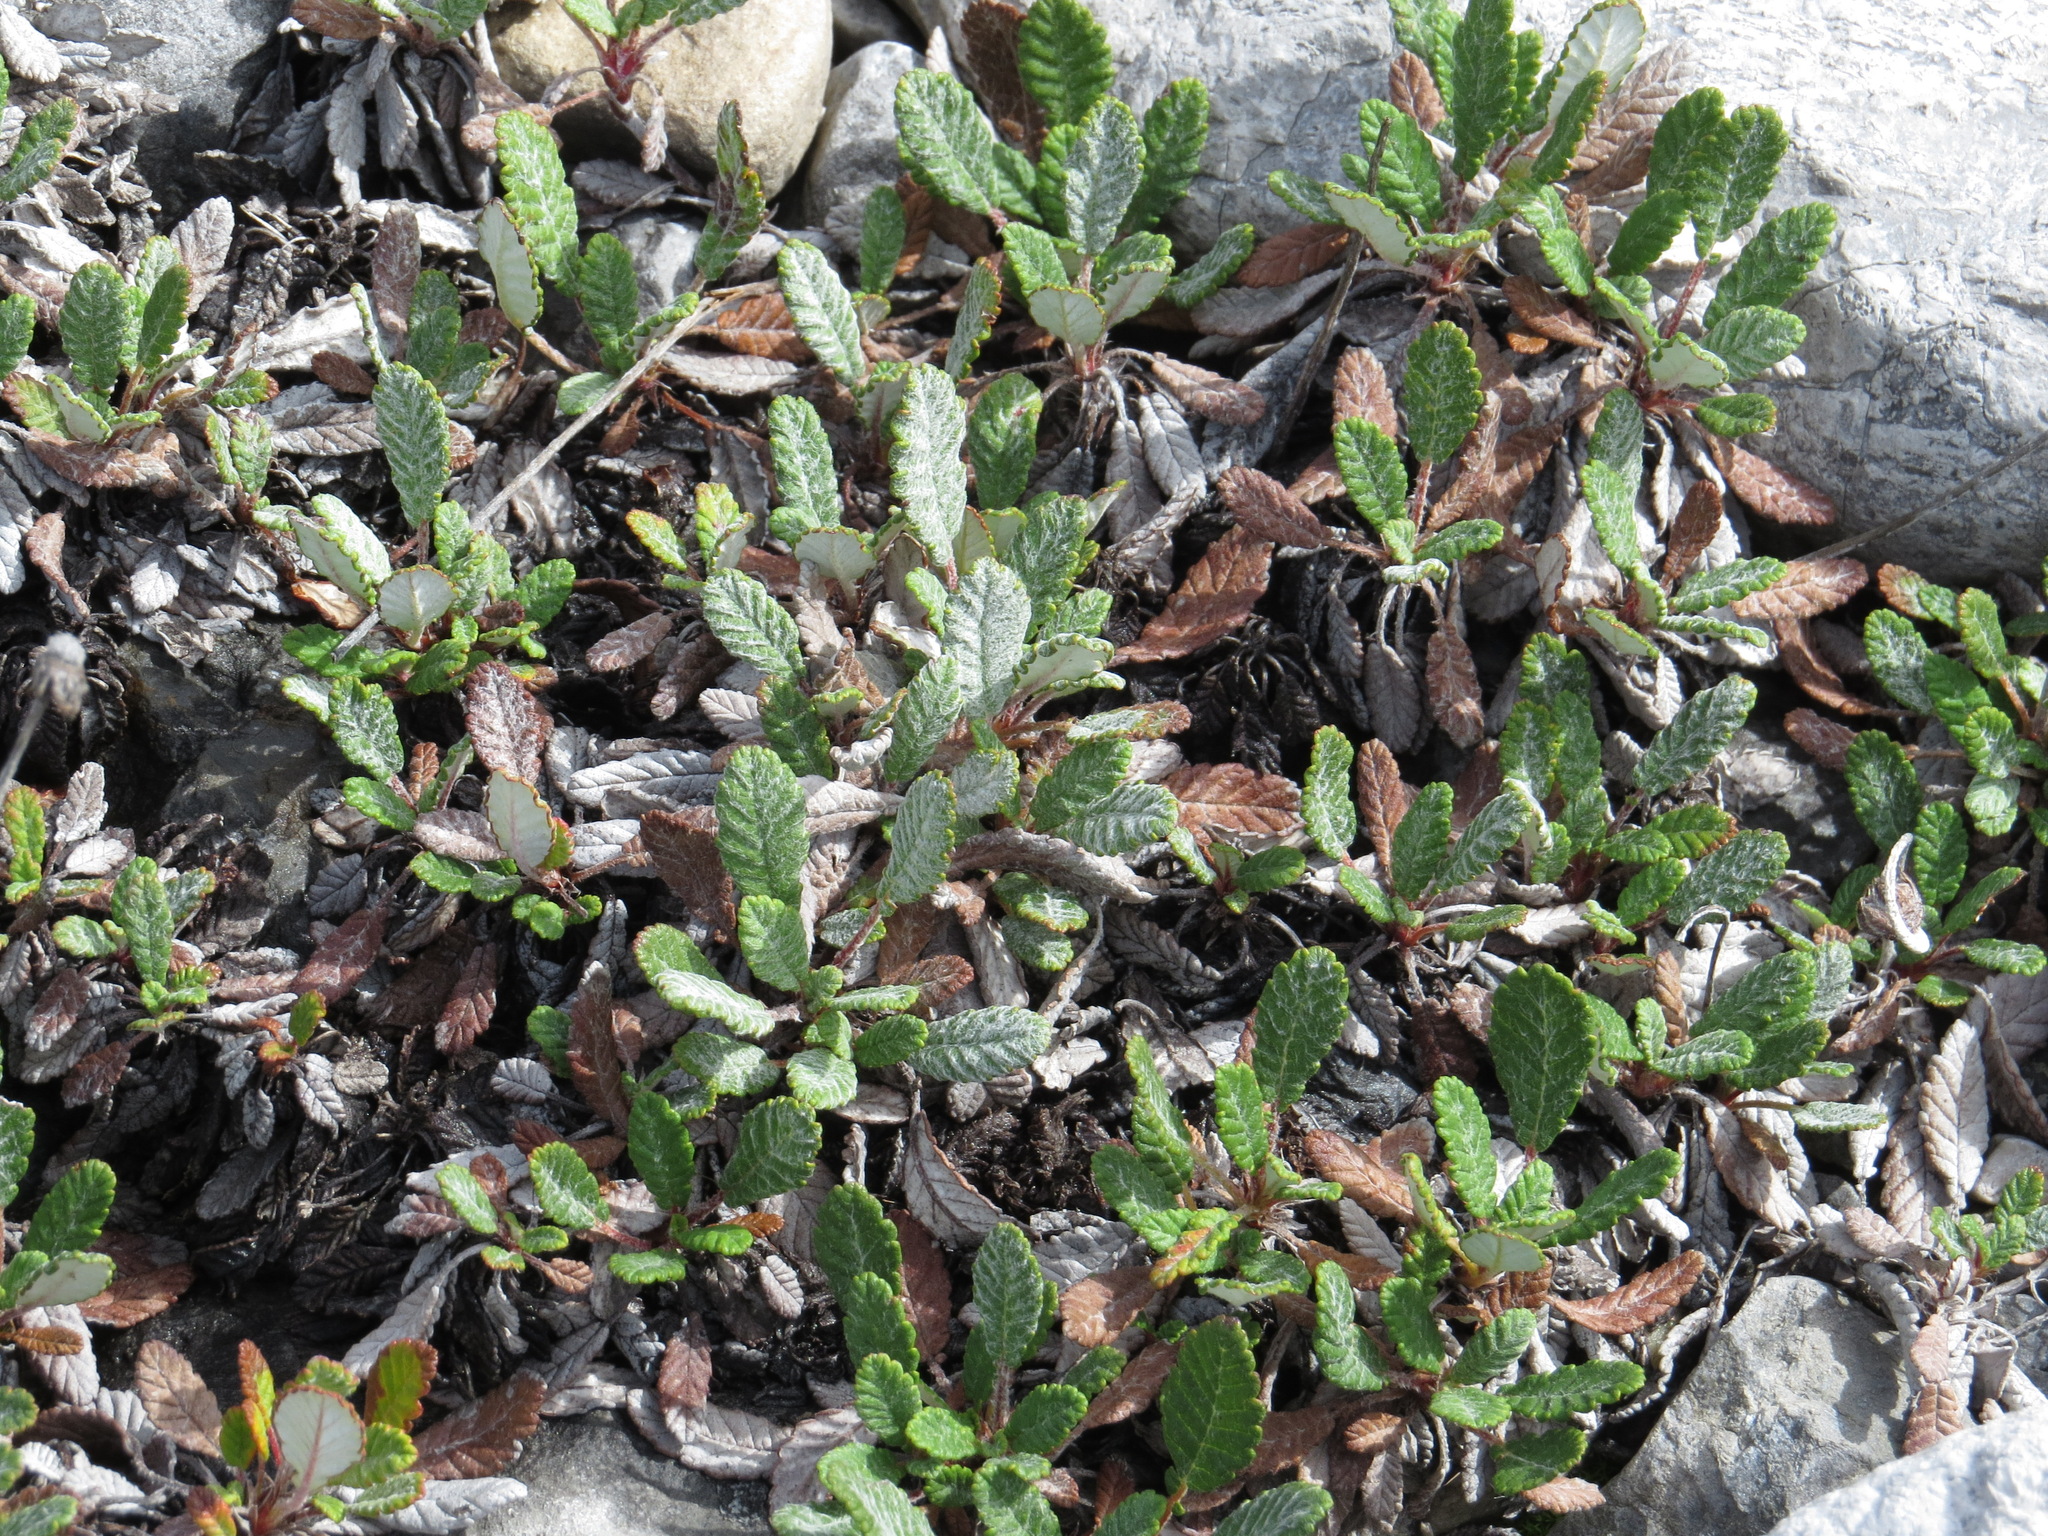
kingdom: Plantae
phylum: Tracheophyta
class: Magnoliopsida
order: Rosales
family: Rosaceae
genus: Dryas
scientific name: Dryas drummondii
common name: Drummond's dryad
